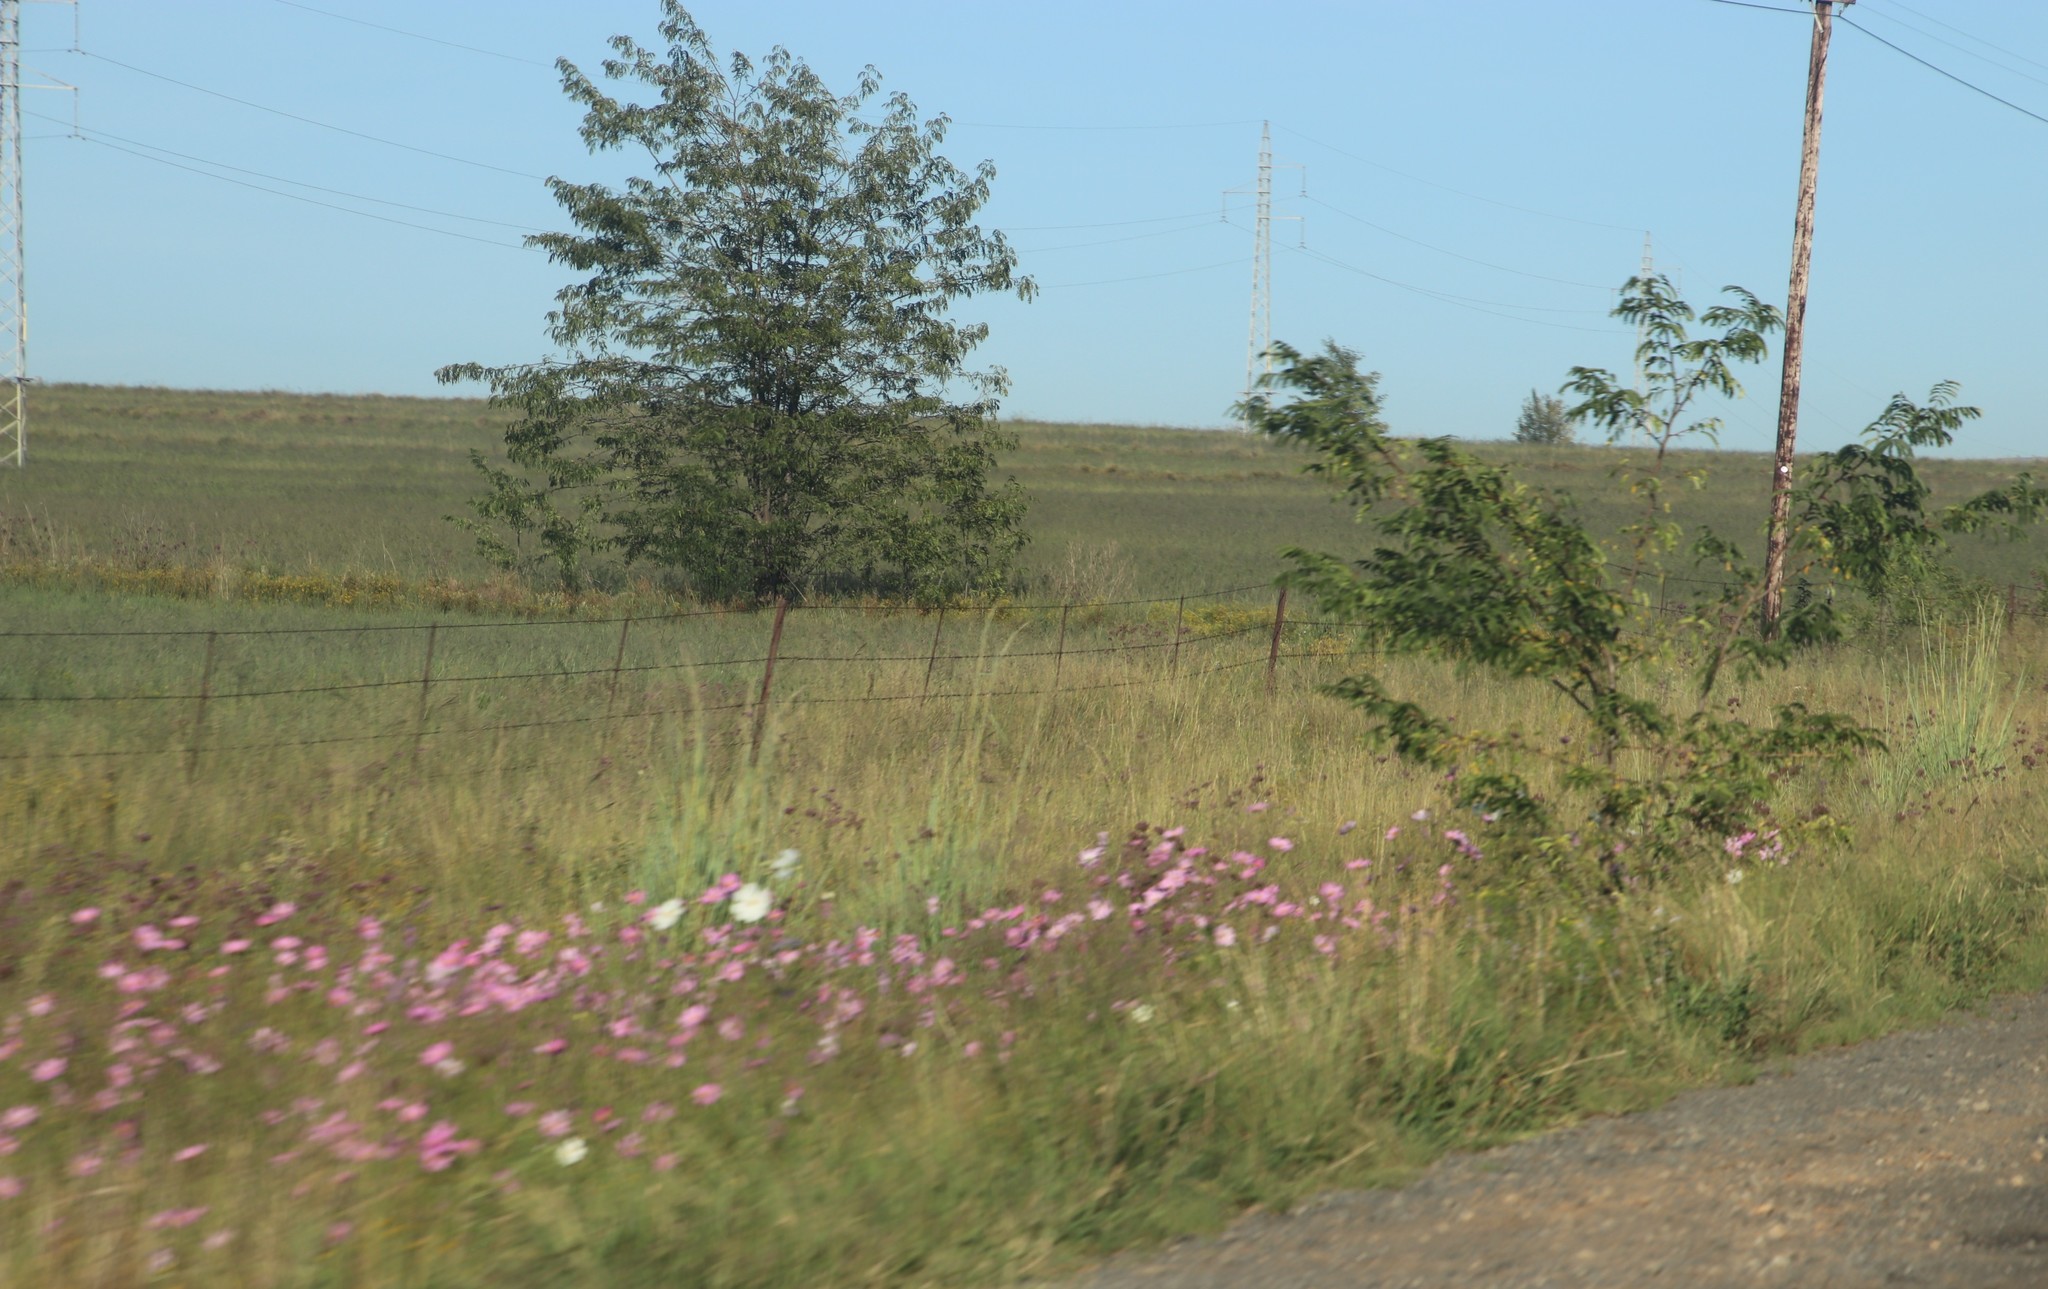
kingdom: Plantae
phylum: Tracheophyta
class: Magnoliopsida
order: Asterales
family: Asteraceae
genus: Cosmos
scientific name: Cosmos bipinnatus
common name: Garden cosmos
